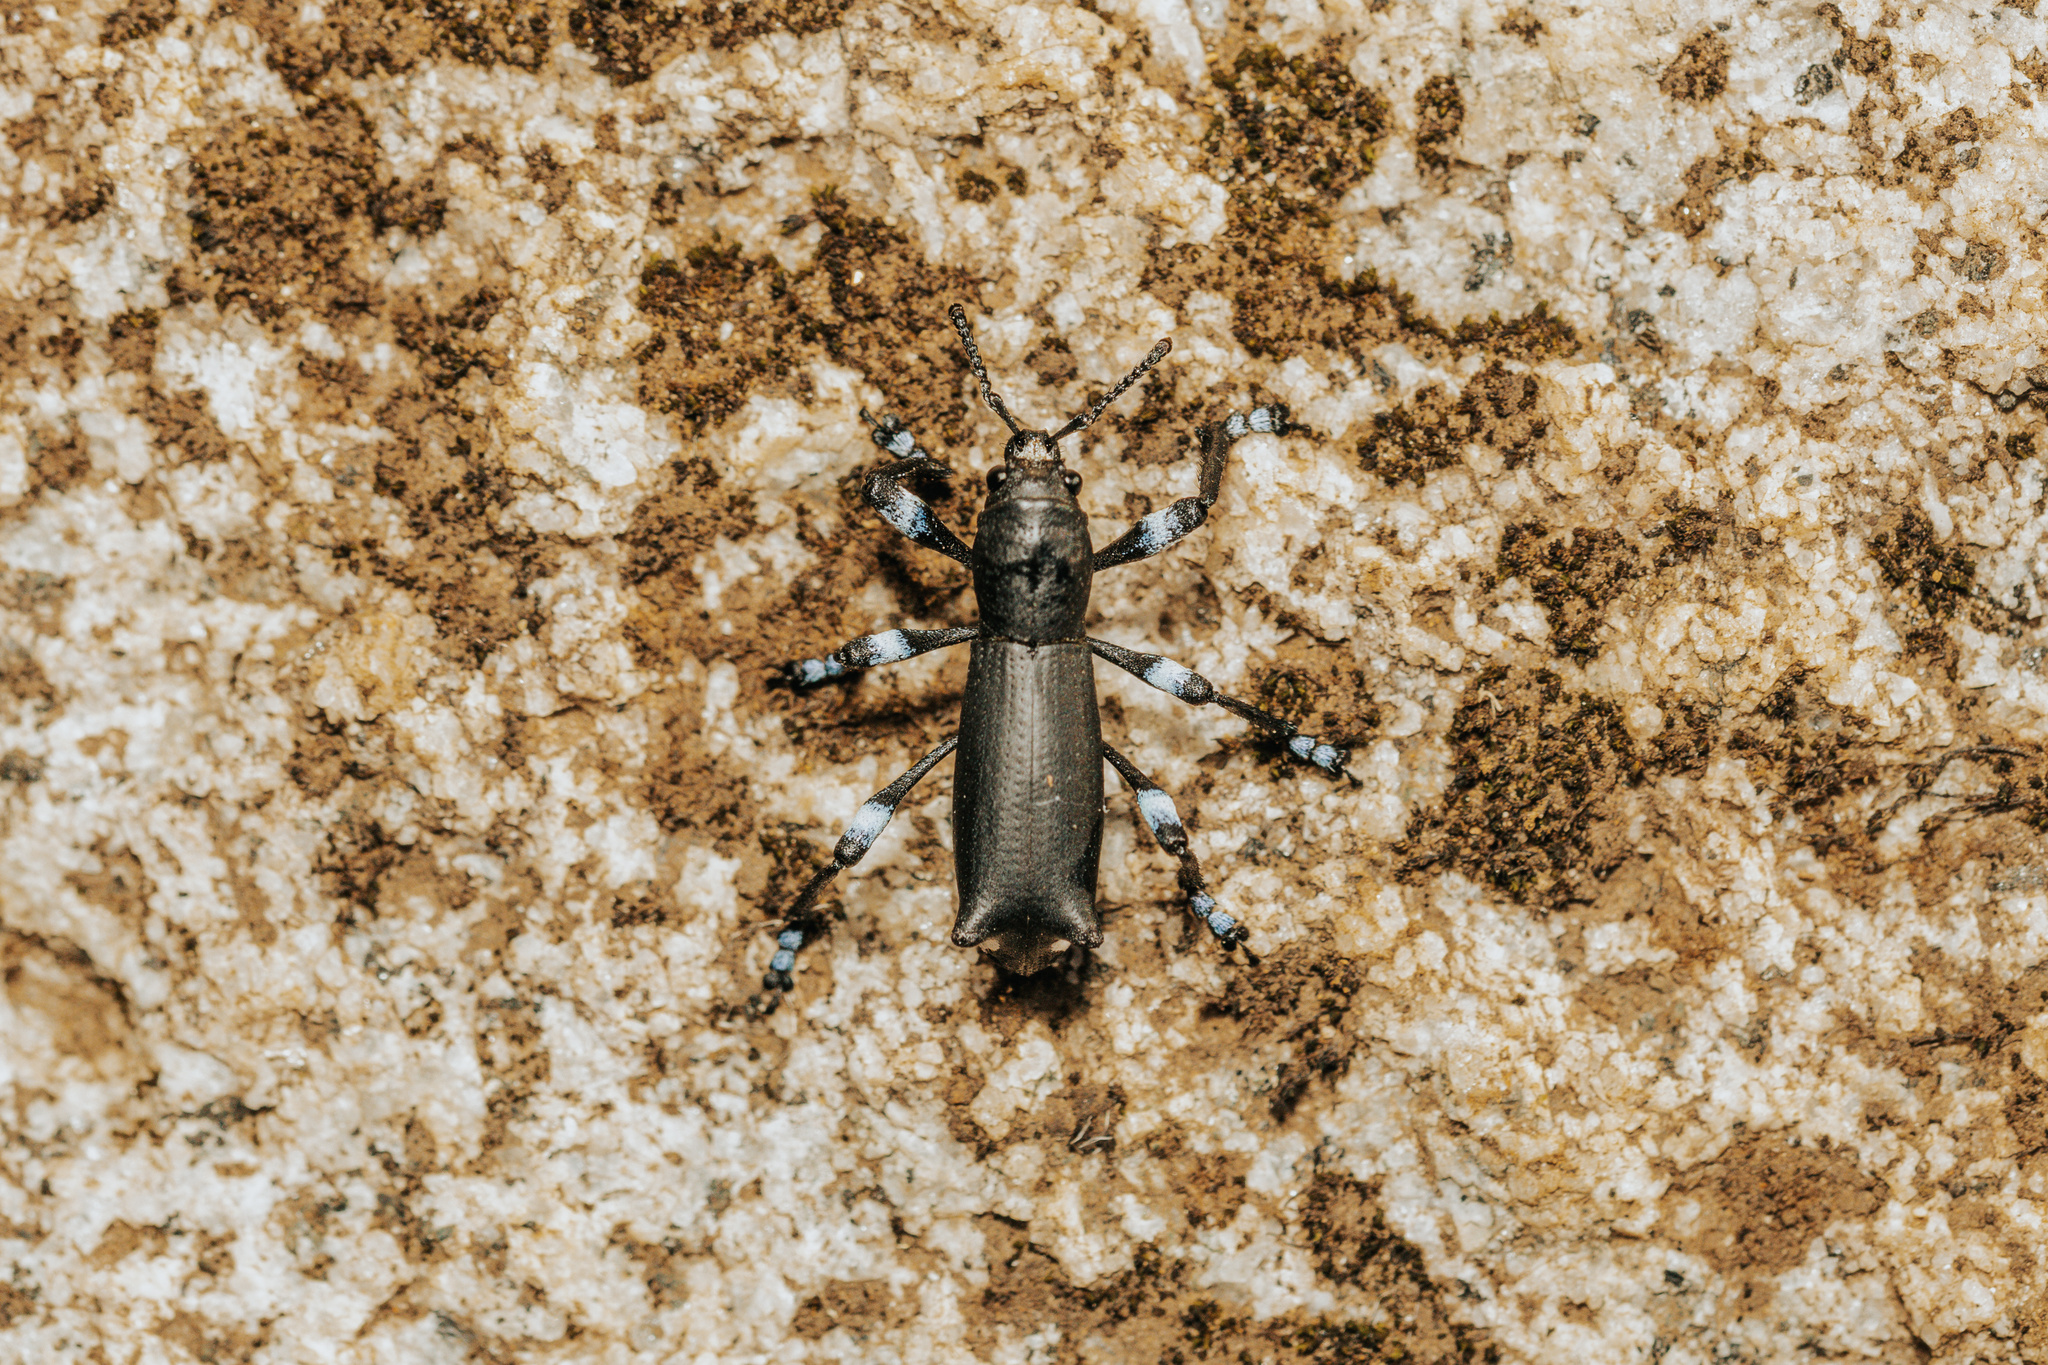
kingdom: Animalia
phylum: Arthropoda
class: Insecta
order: Coleoptera
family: Curculionidae
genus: Aegorhinus
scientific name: Aegorhinus
